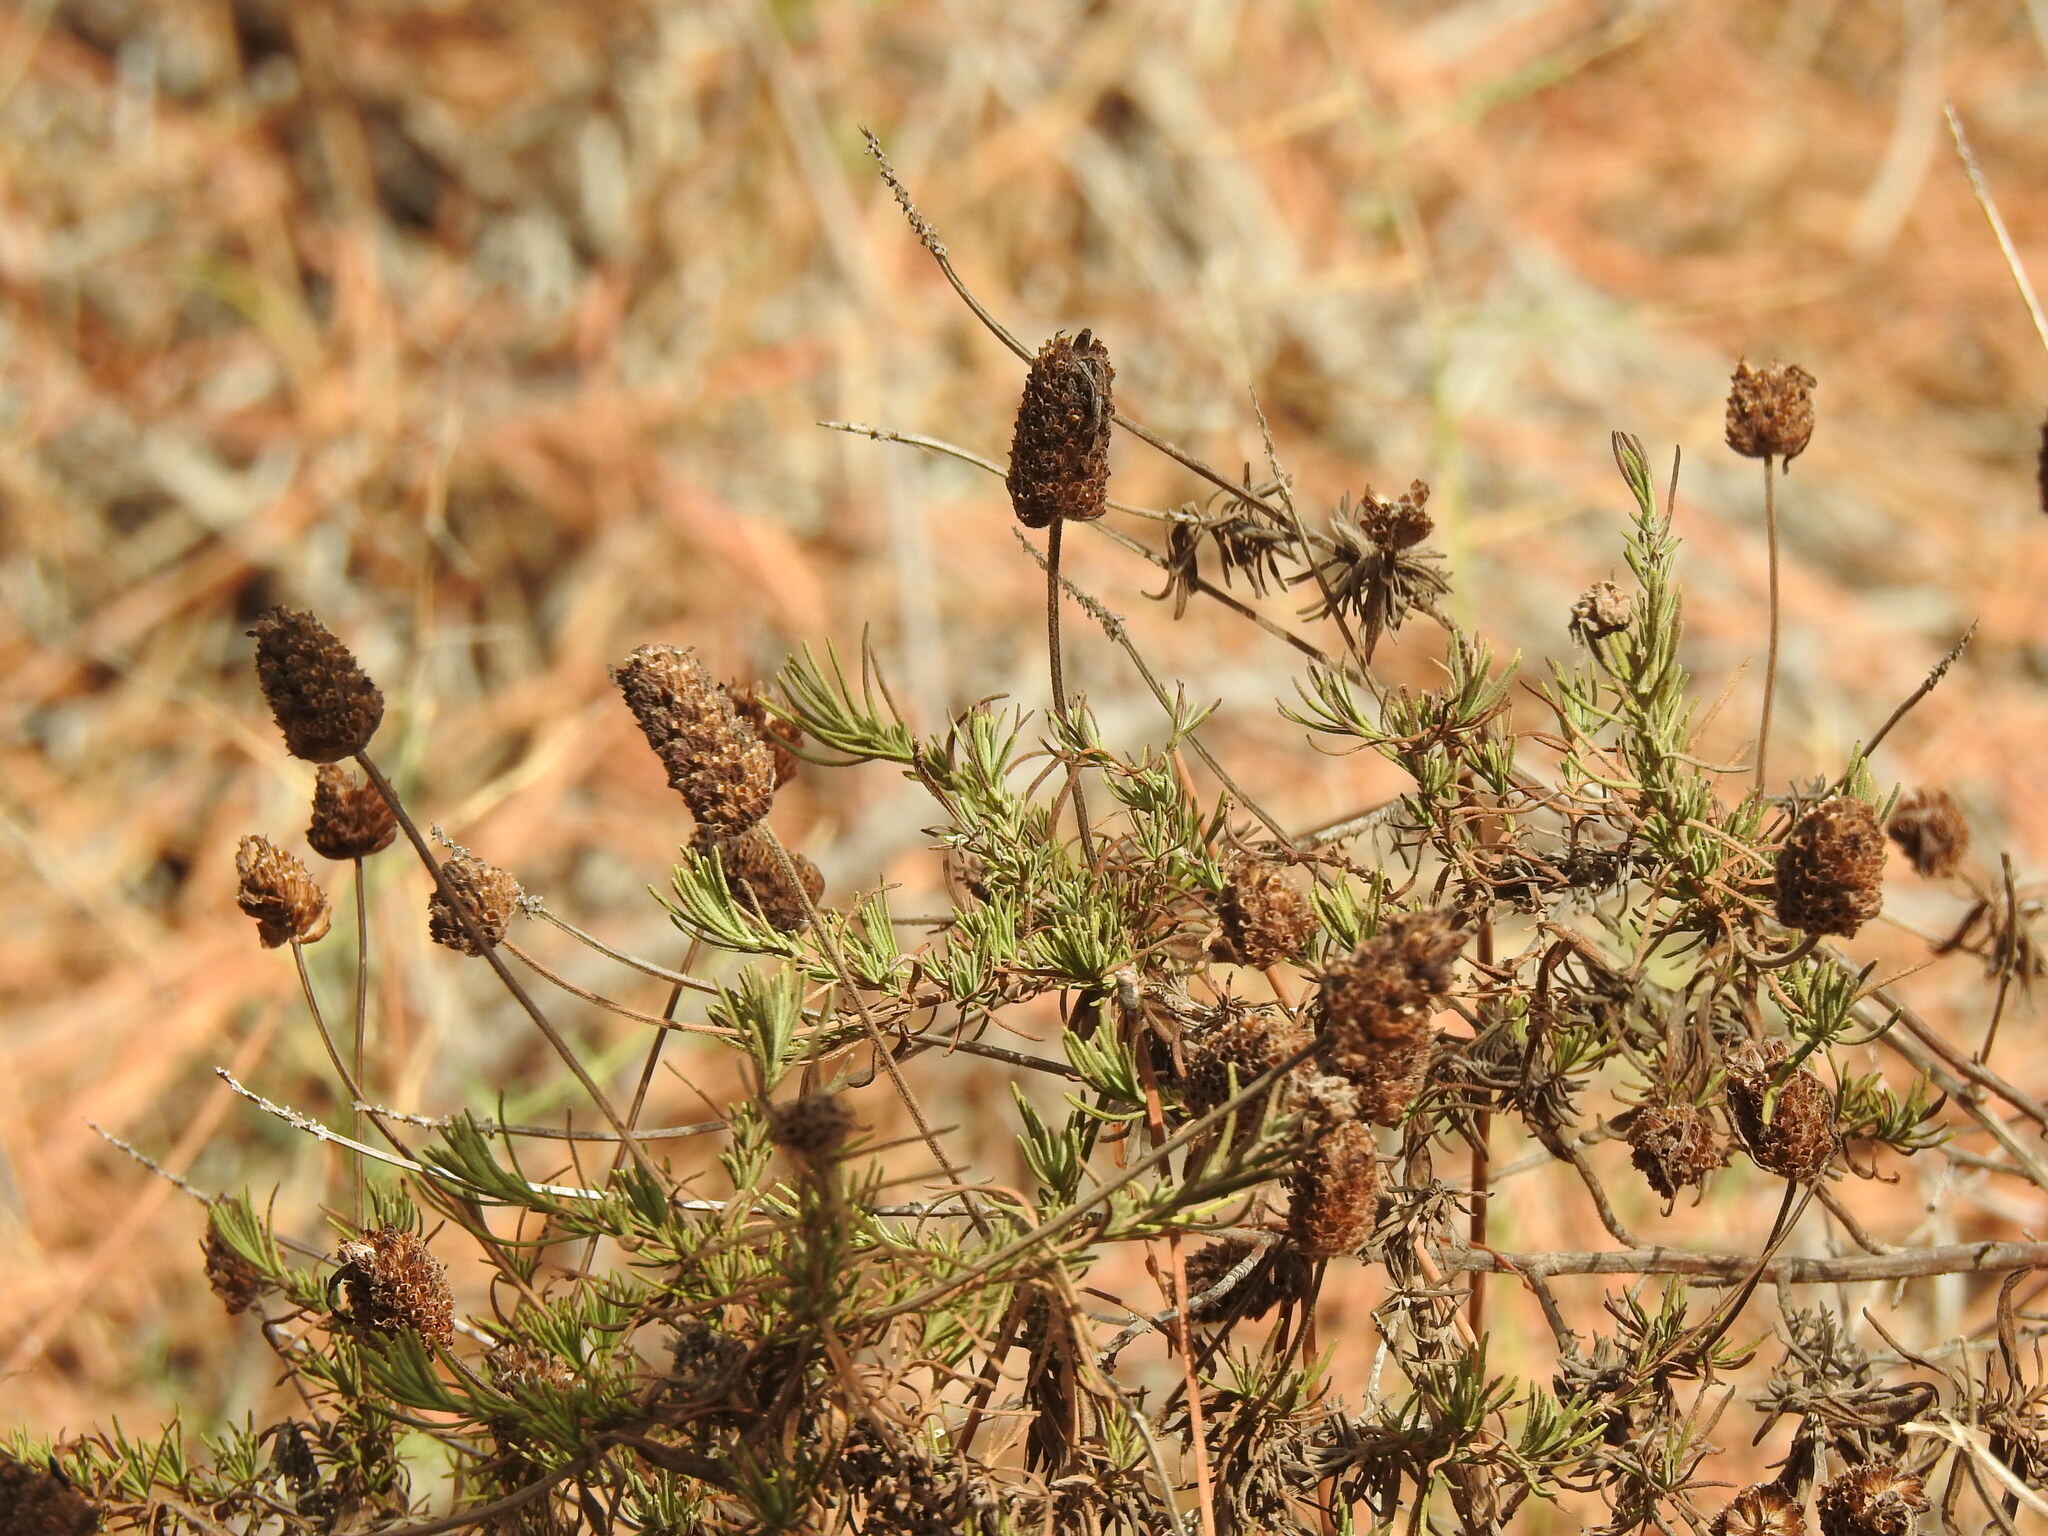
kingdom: Plantae
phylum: Tracheophyta
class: Magnoliopsida
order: Lamiales
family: Lamiaceae
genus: Lavandula
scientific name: Lavandula pedunculata
